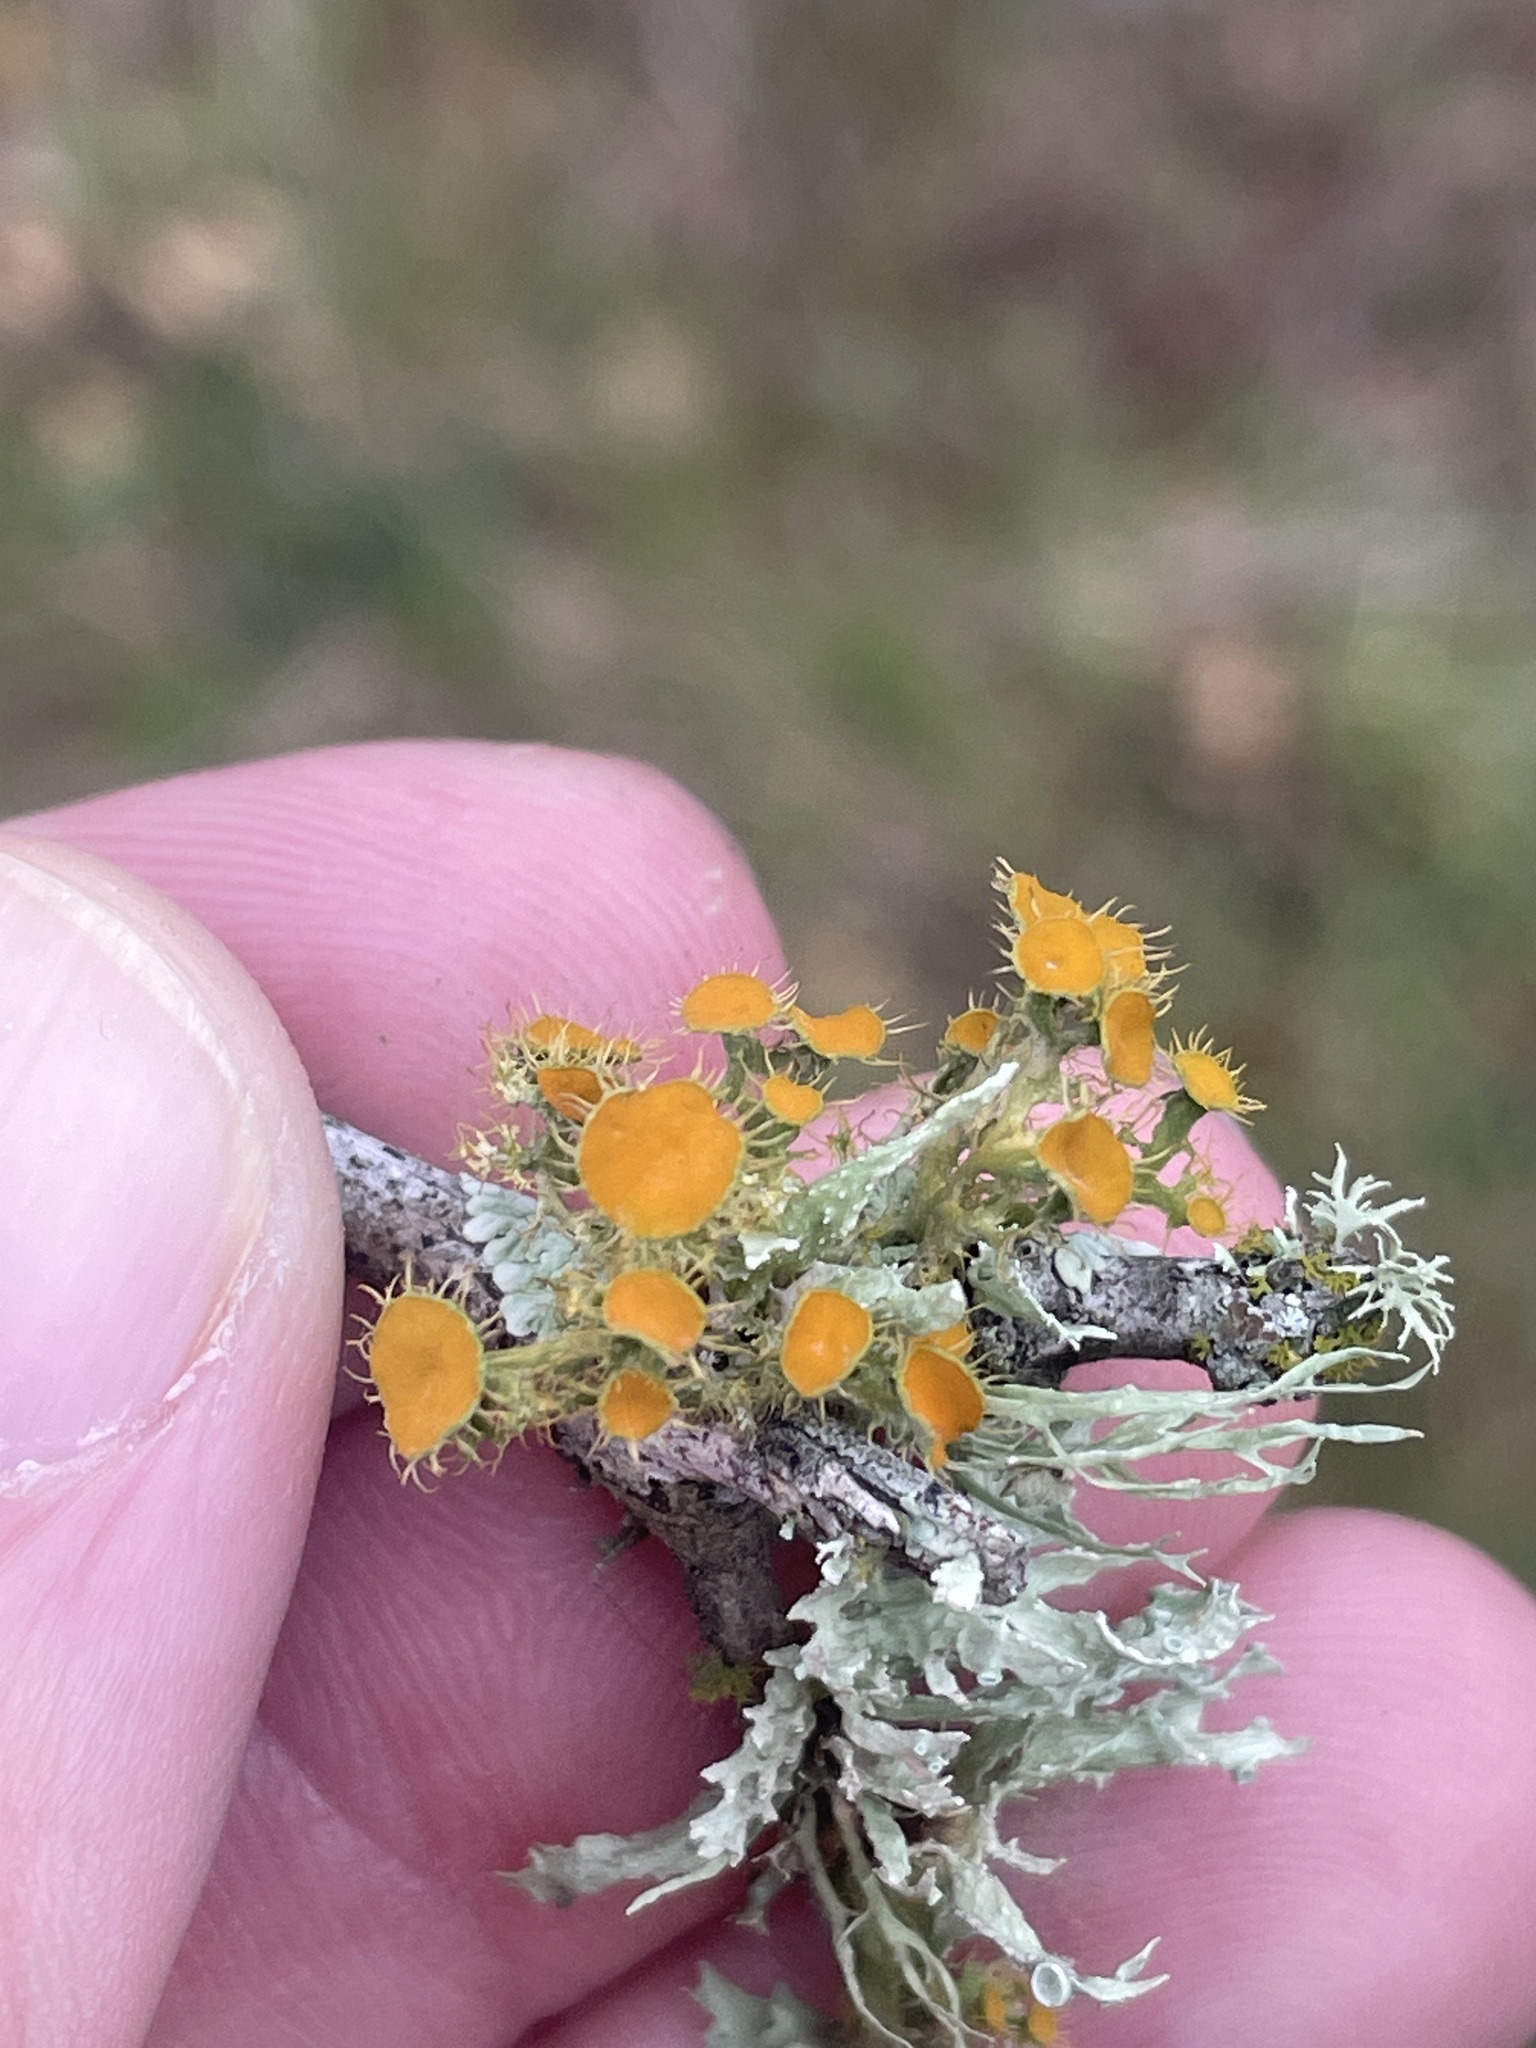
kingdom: Fungi
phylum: Ascomycota
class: Lecanoromycetes
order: Teloschistales
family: Teloschistaceae
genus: Niorma
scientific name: Niorma chrysophthalma
